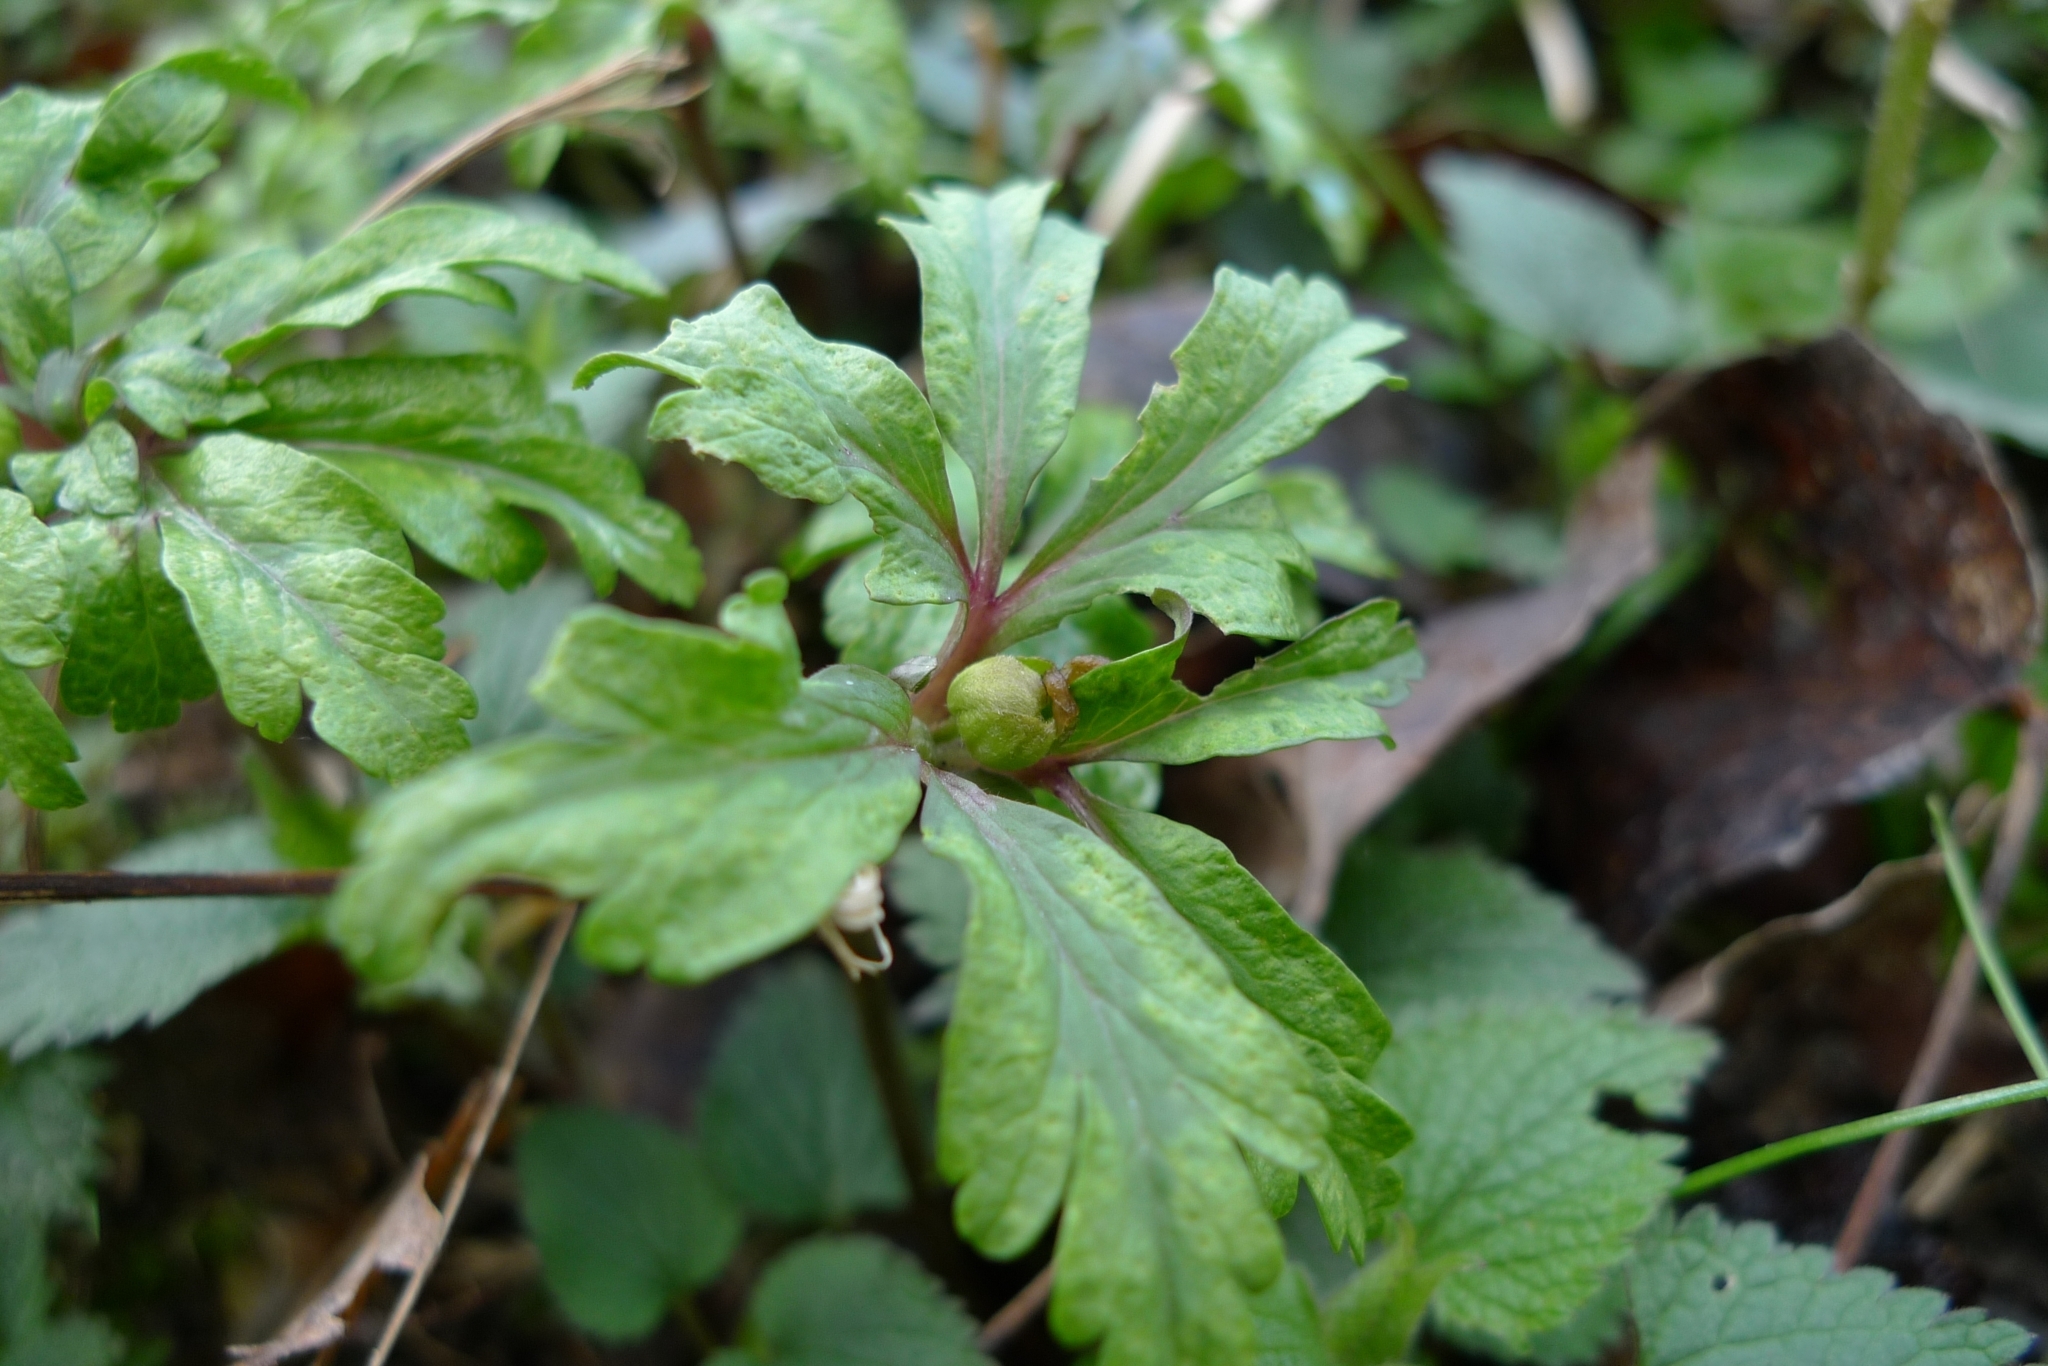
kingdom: Plantae
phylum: Tracheophyta
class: Magnoliopsida
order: Ranunculales
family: Ranunculaceae
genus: Anemone
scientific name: Anemone ranunculoides
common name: Yellow anemone
